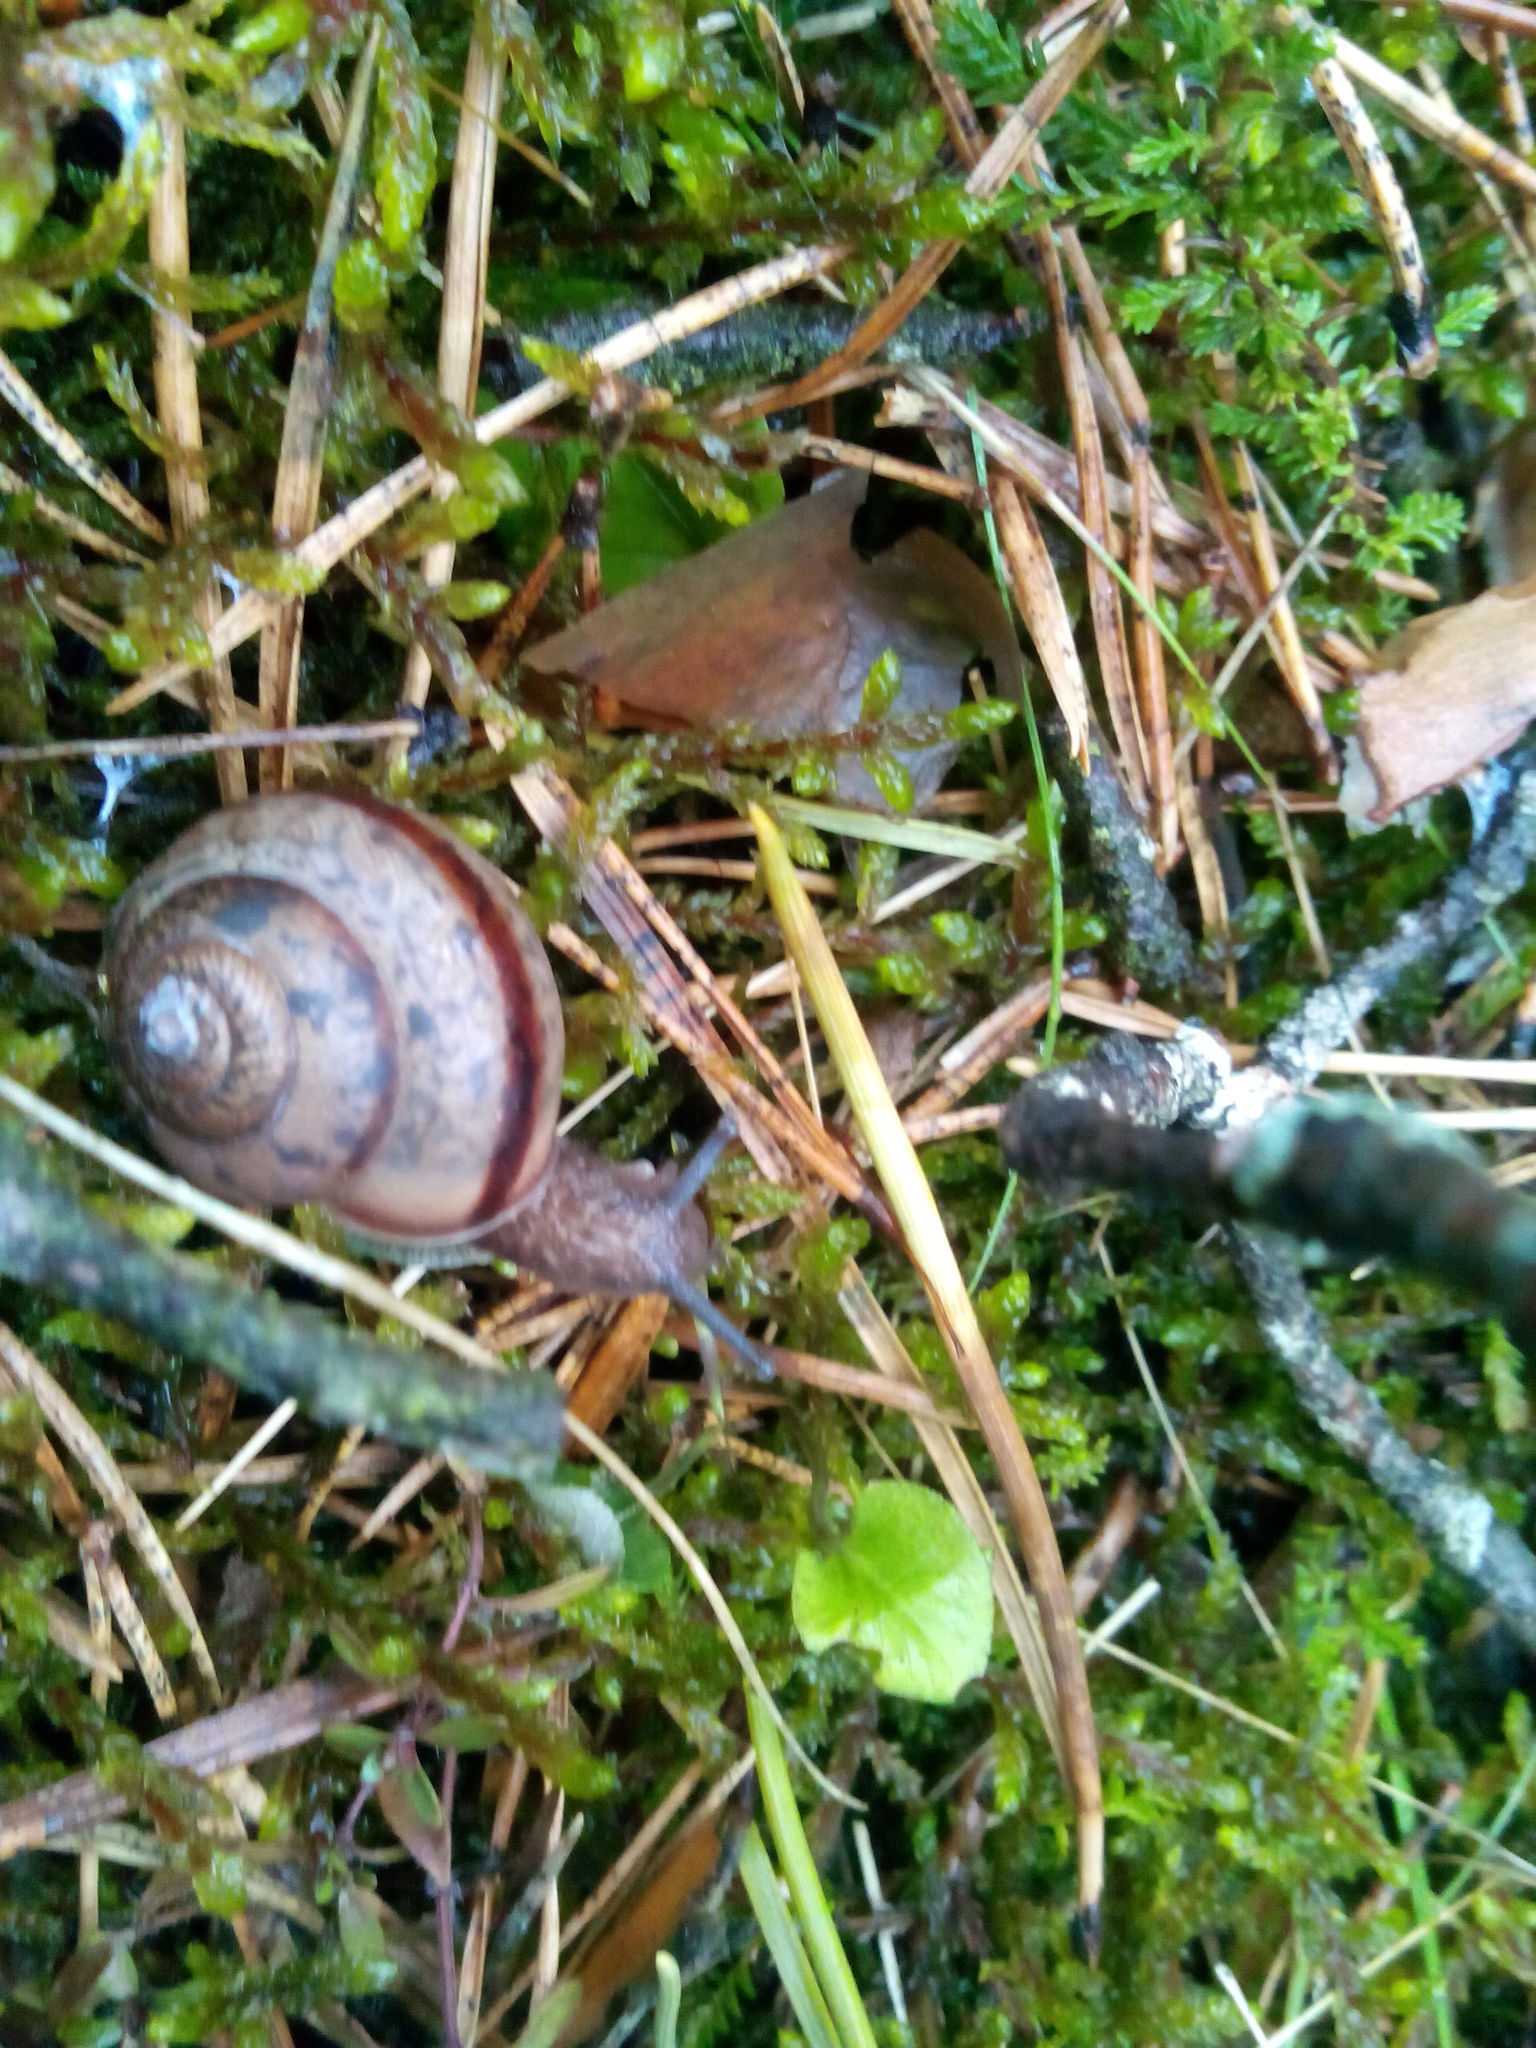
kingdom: Animalia
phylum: Mollusca
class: Gastropoda
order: Stylommatophora
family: Camaenidae
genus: Fruticicola
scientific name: Fruticicola fruticum
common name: Bush snail
